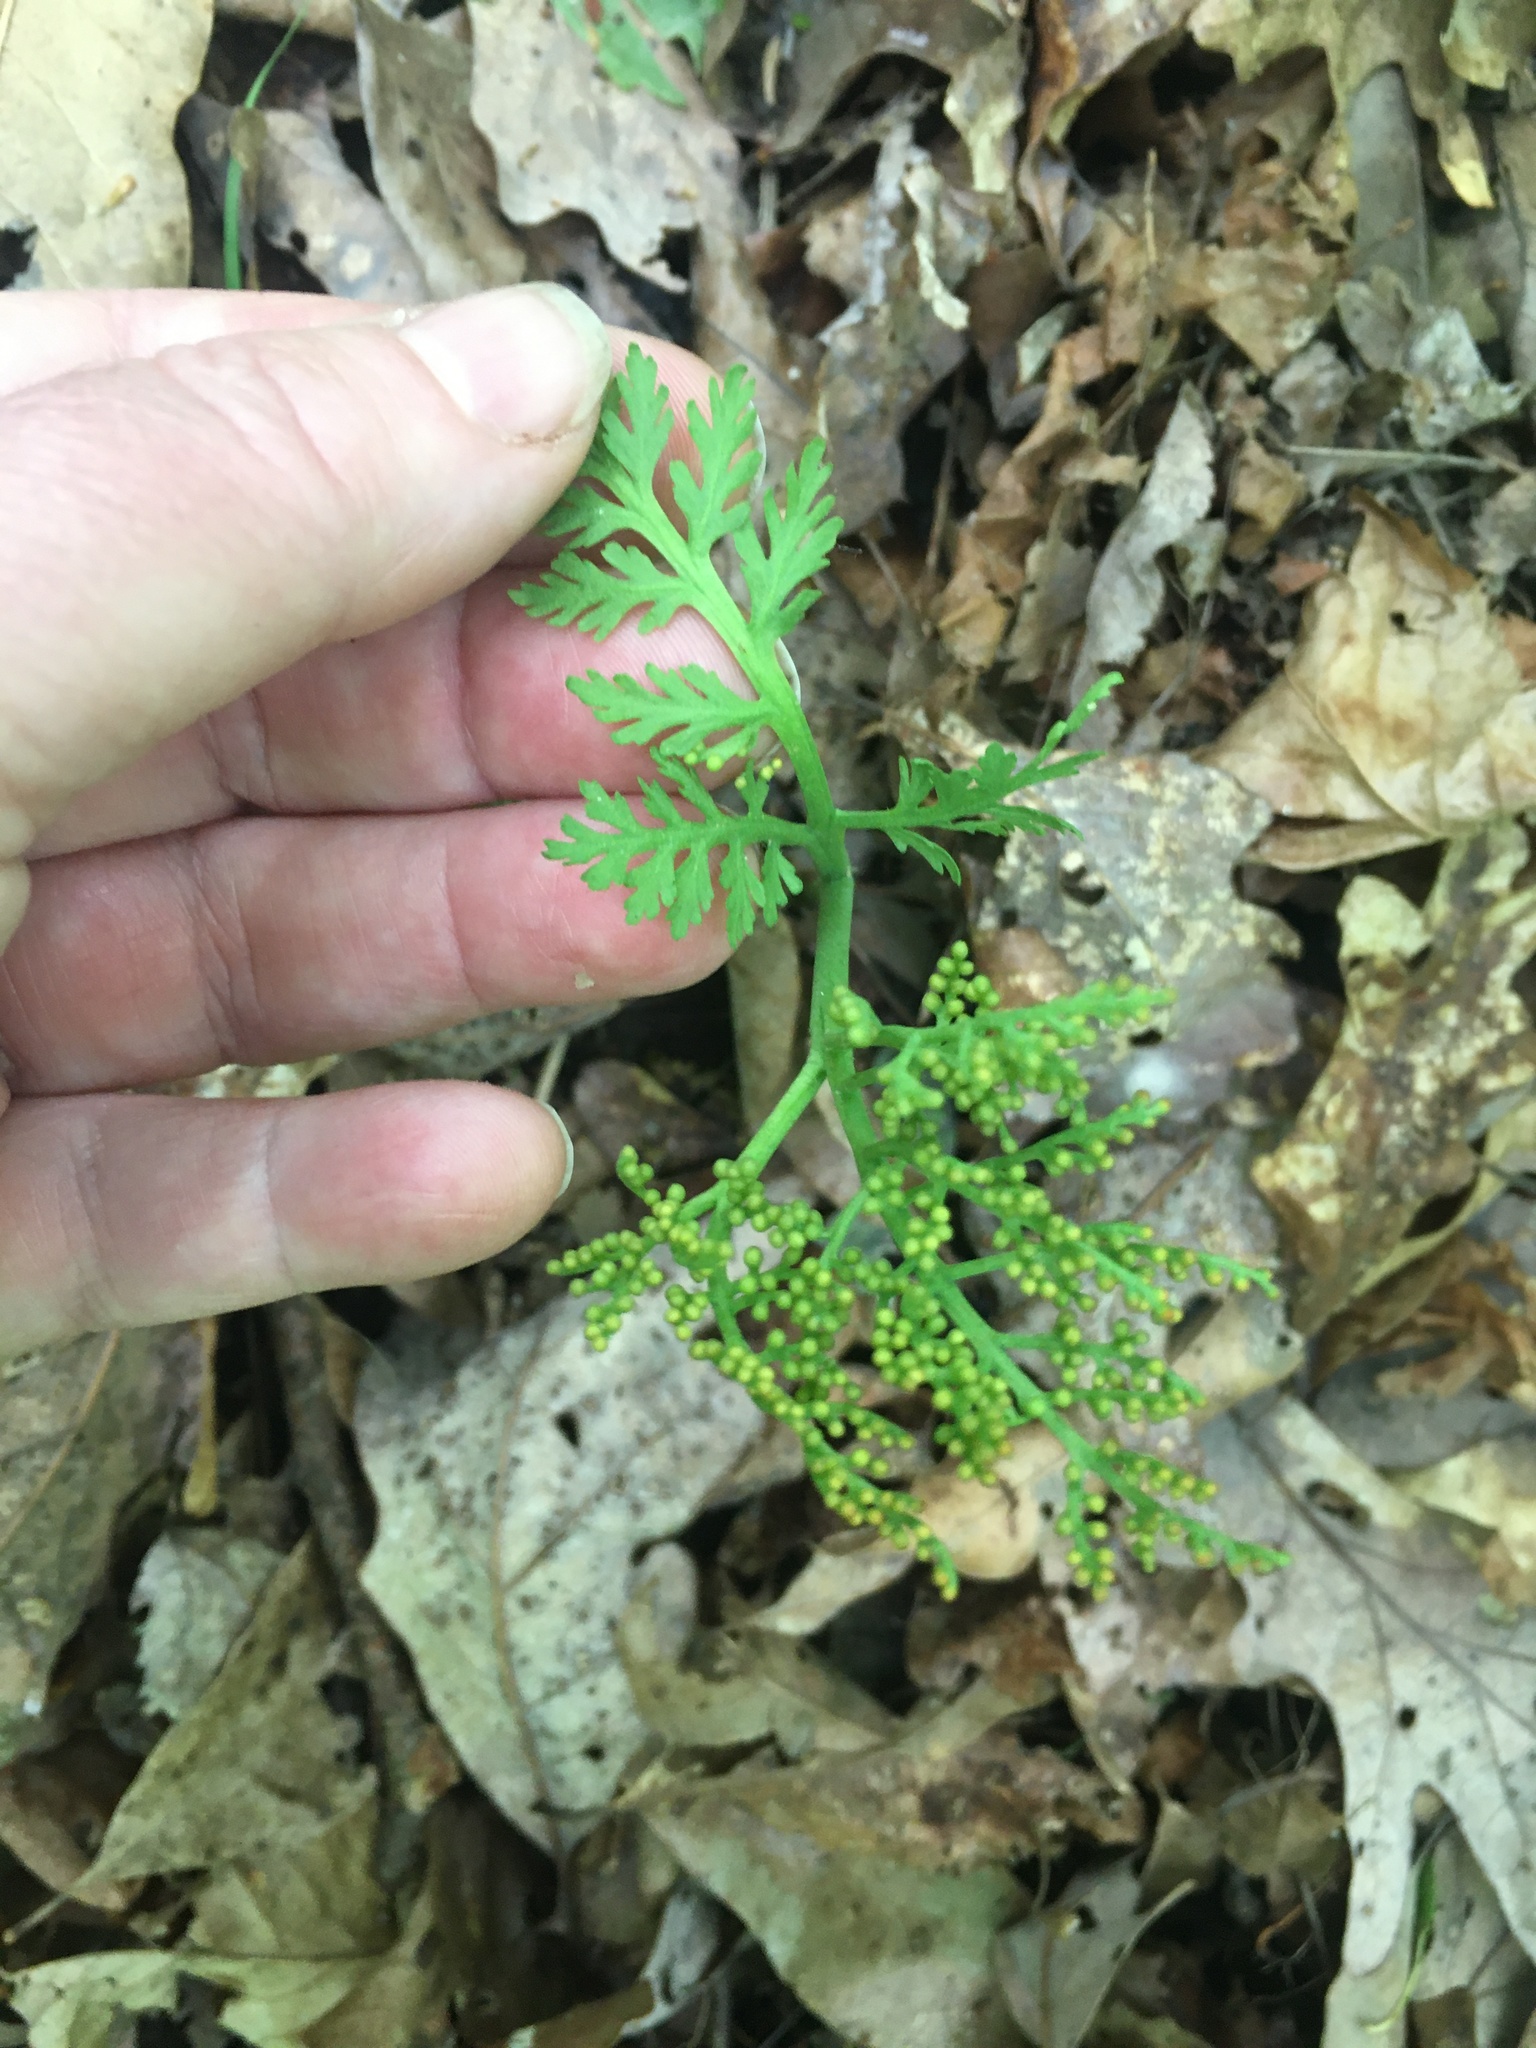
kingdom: Plantae
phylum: Tracheophyta
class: Polypodiopsida
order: Ophioglossales
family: Ophioglossaceae
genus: Botrychium
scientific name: Botrychium matricariifolium
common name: Branched moonwort
